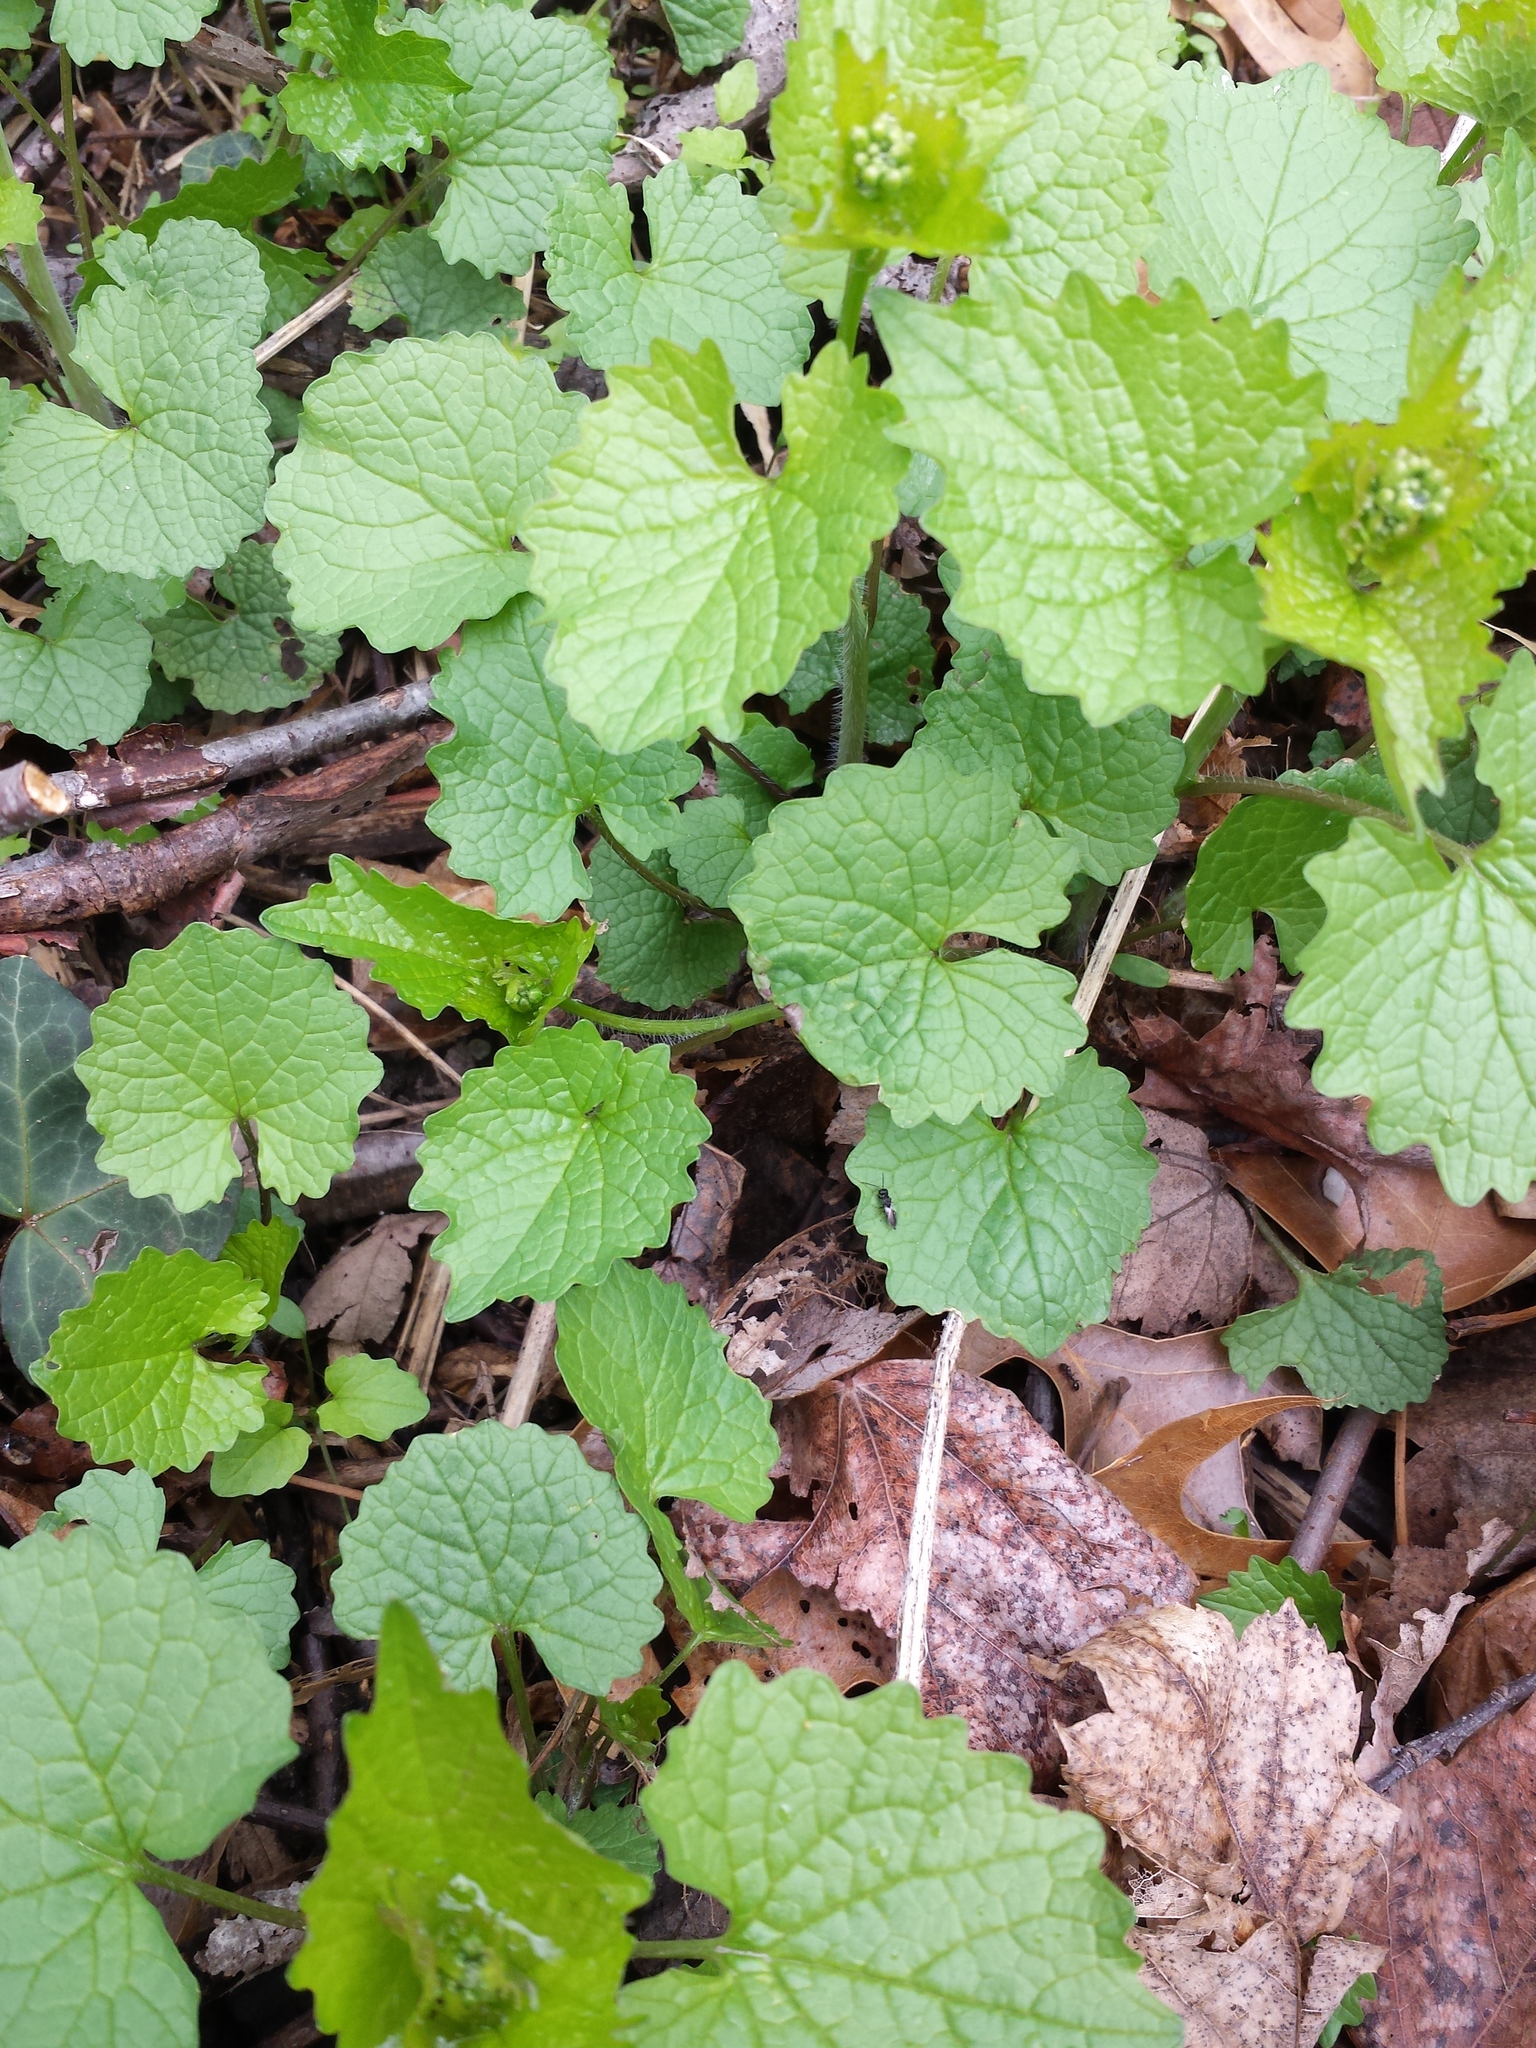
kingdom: Plantae
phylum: Tracheophyta
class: Magnoliopsida
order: Brassicales
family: Brassicaceae
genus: Alliaria
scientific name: Alliaria petiolata
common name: Garlic mustard
